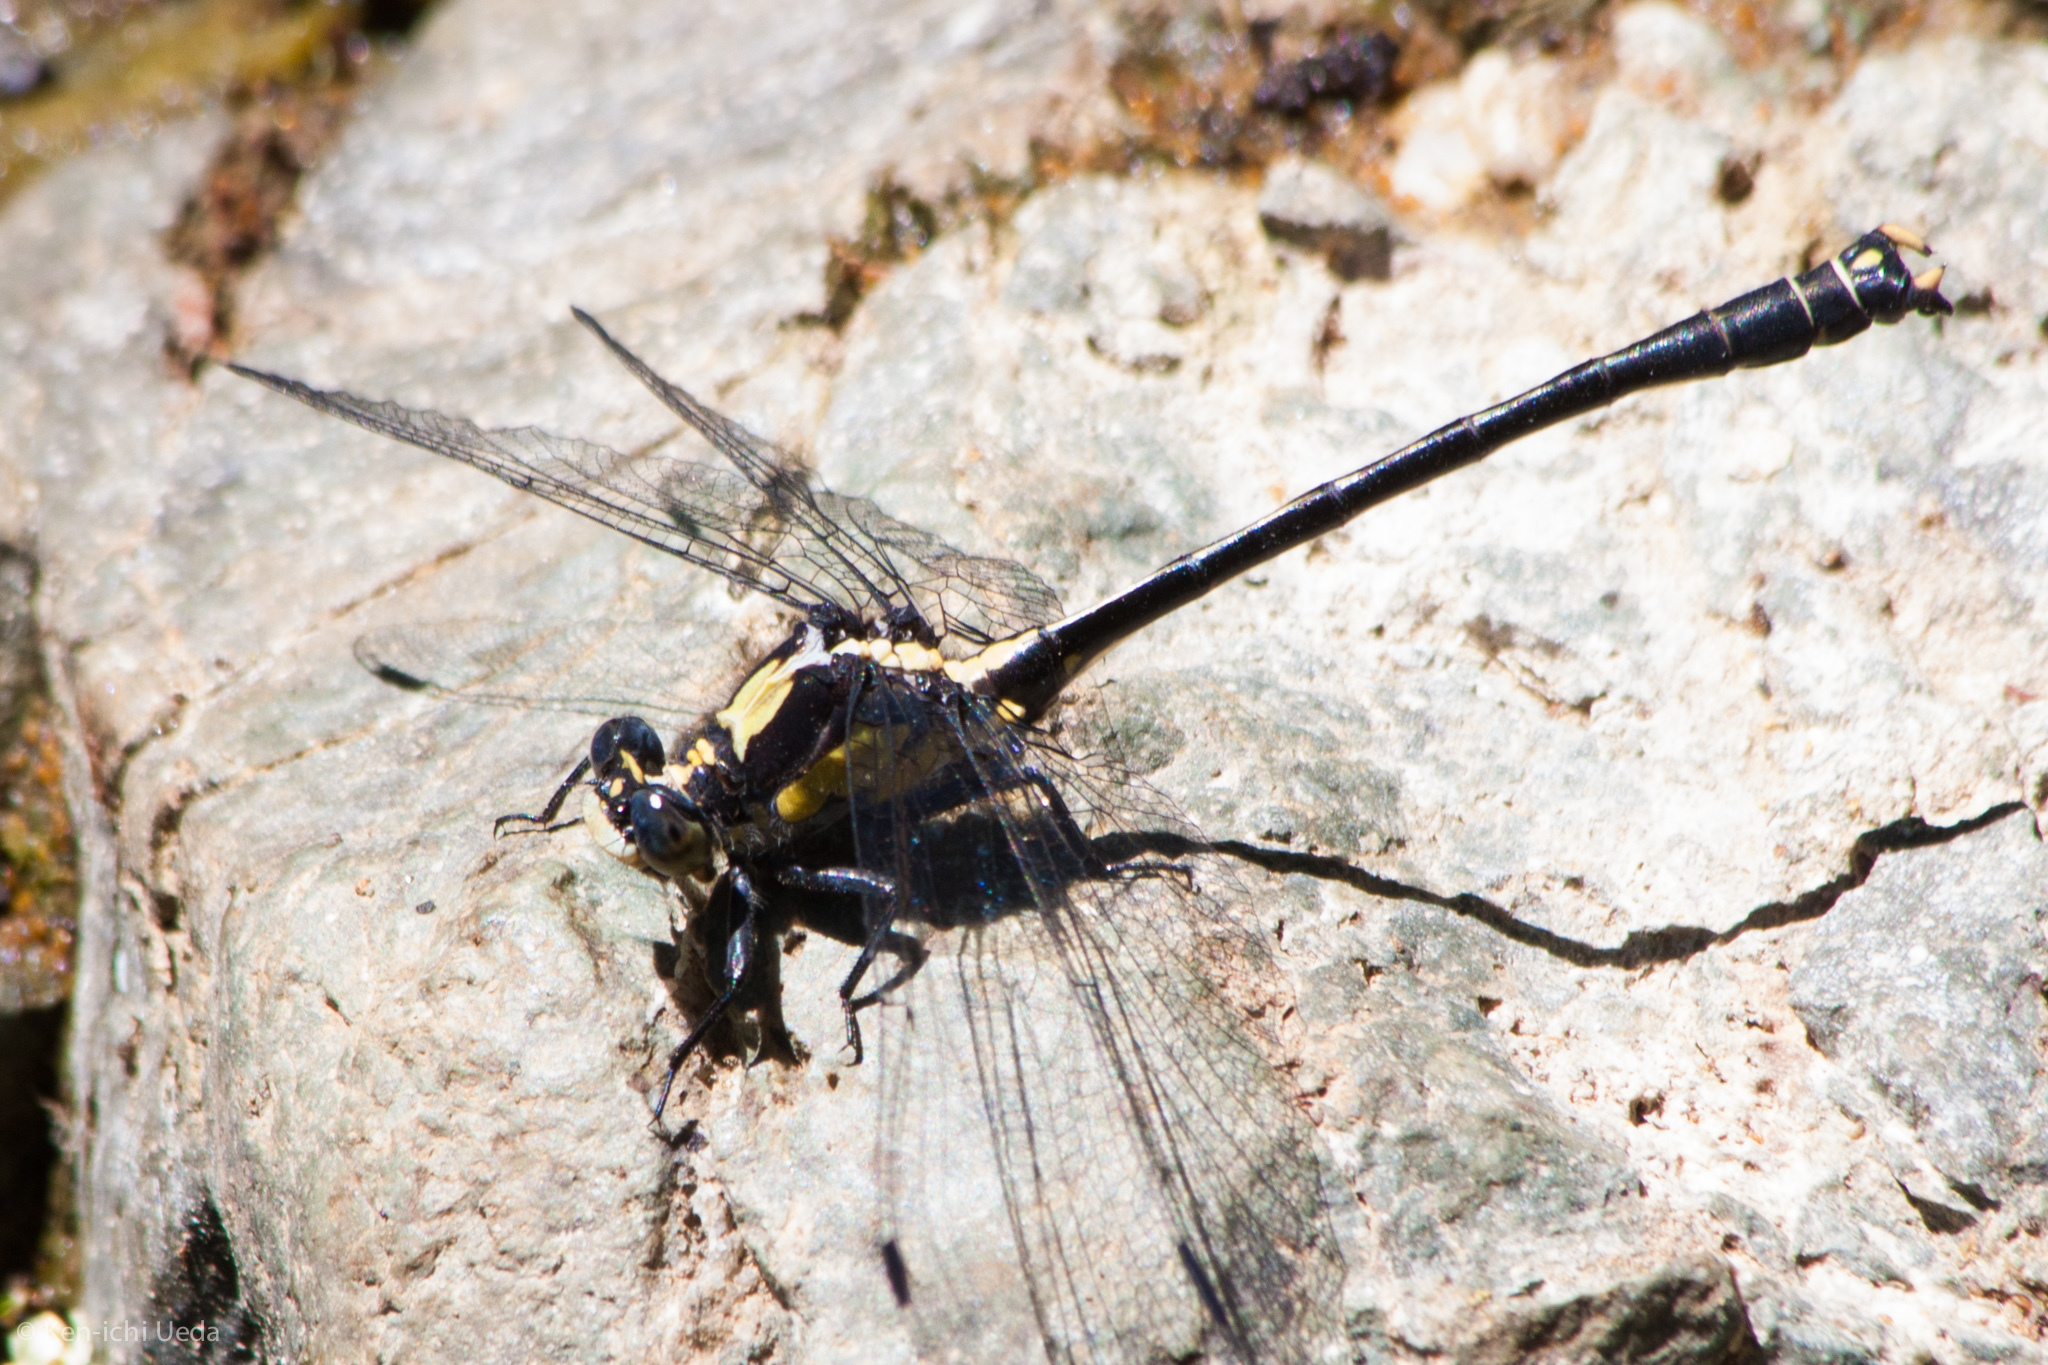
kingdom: Animalia
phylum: Arthropoda
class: Insecta
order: Odonata
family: Gomphidae
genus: Octogomphus
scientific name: Octogomphus specularis
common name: Grappletail
